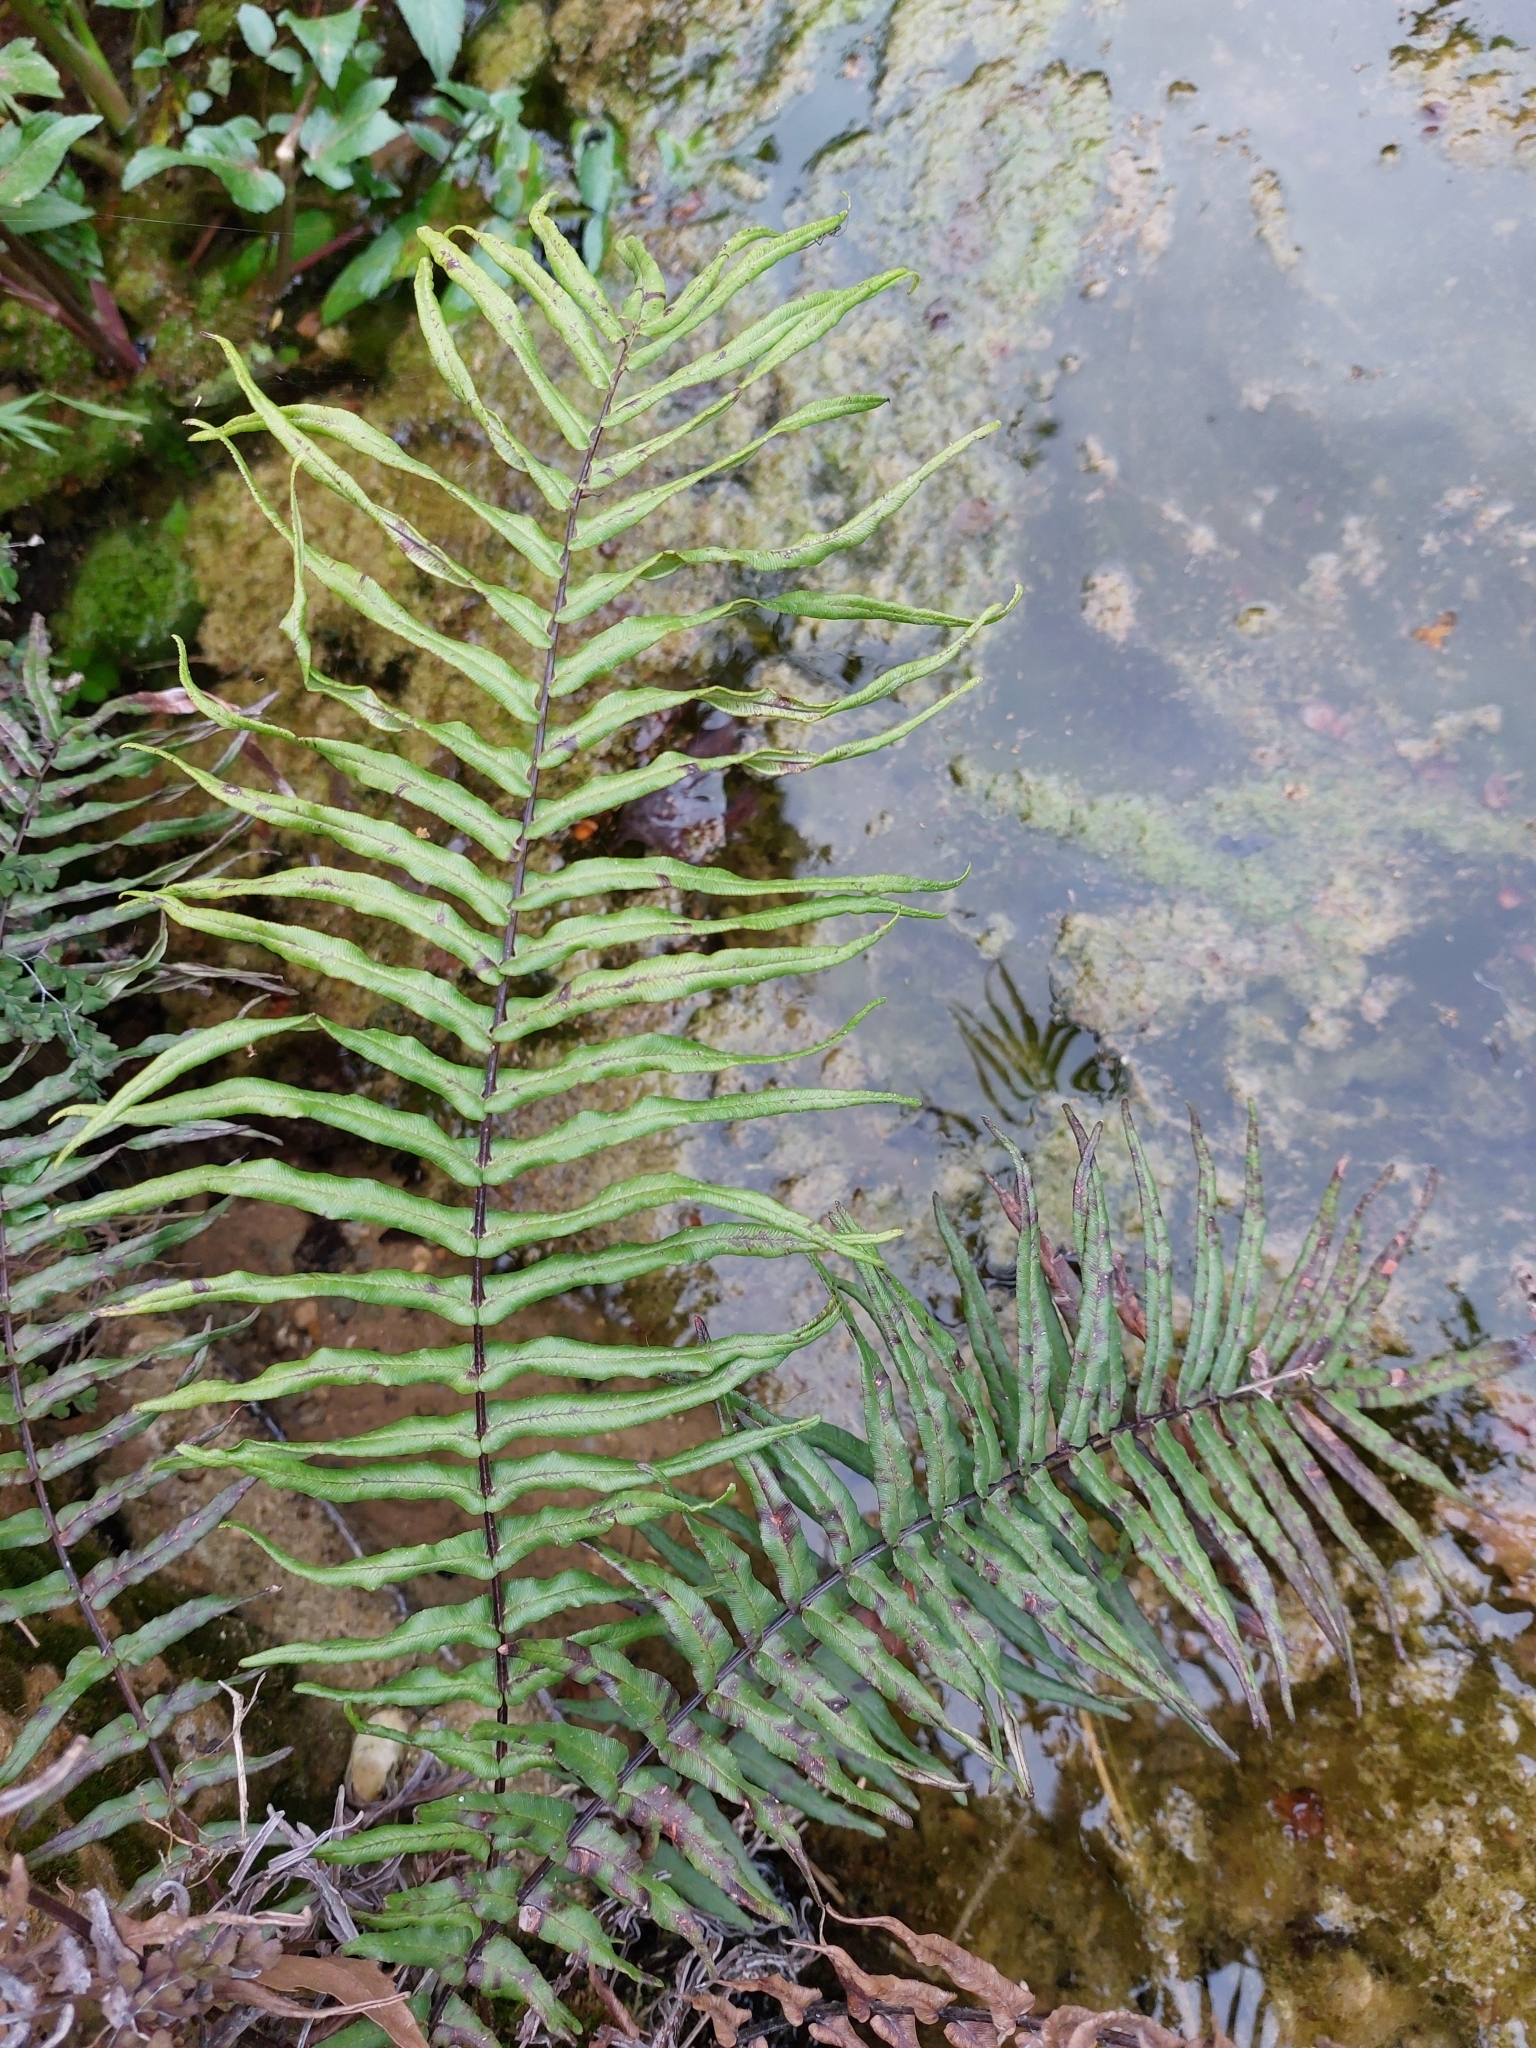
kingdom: Plantae
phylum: Tracheophyta
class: Polypodiopsida
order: Polypodiales
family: Pteridaceae
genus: Pteris
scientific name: Pteris vittata
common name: Ladder brake
